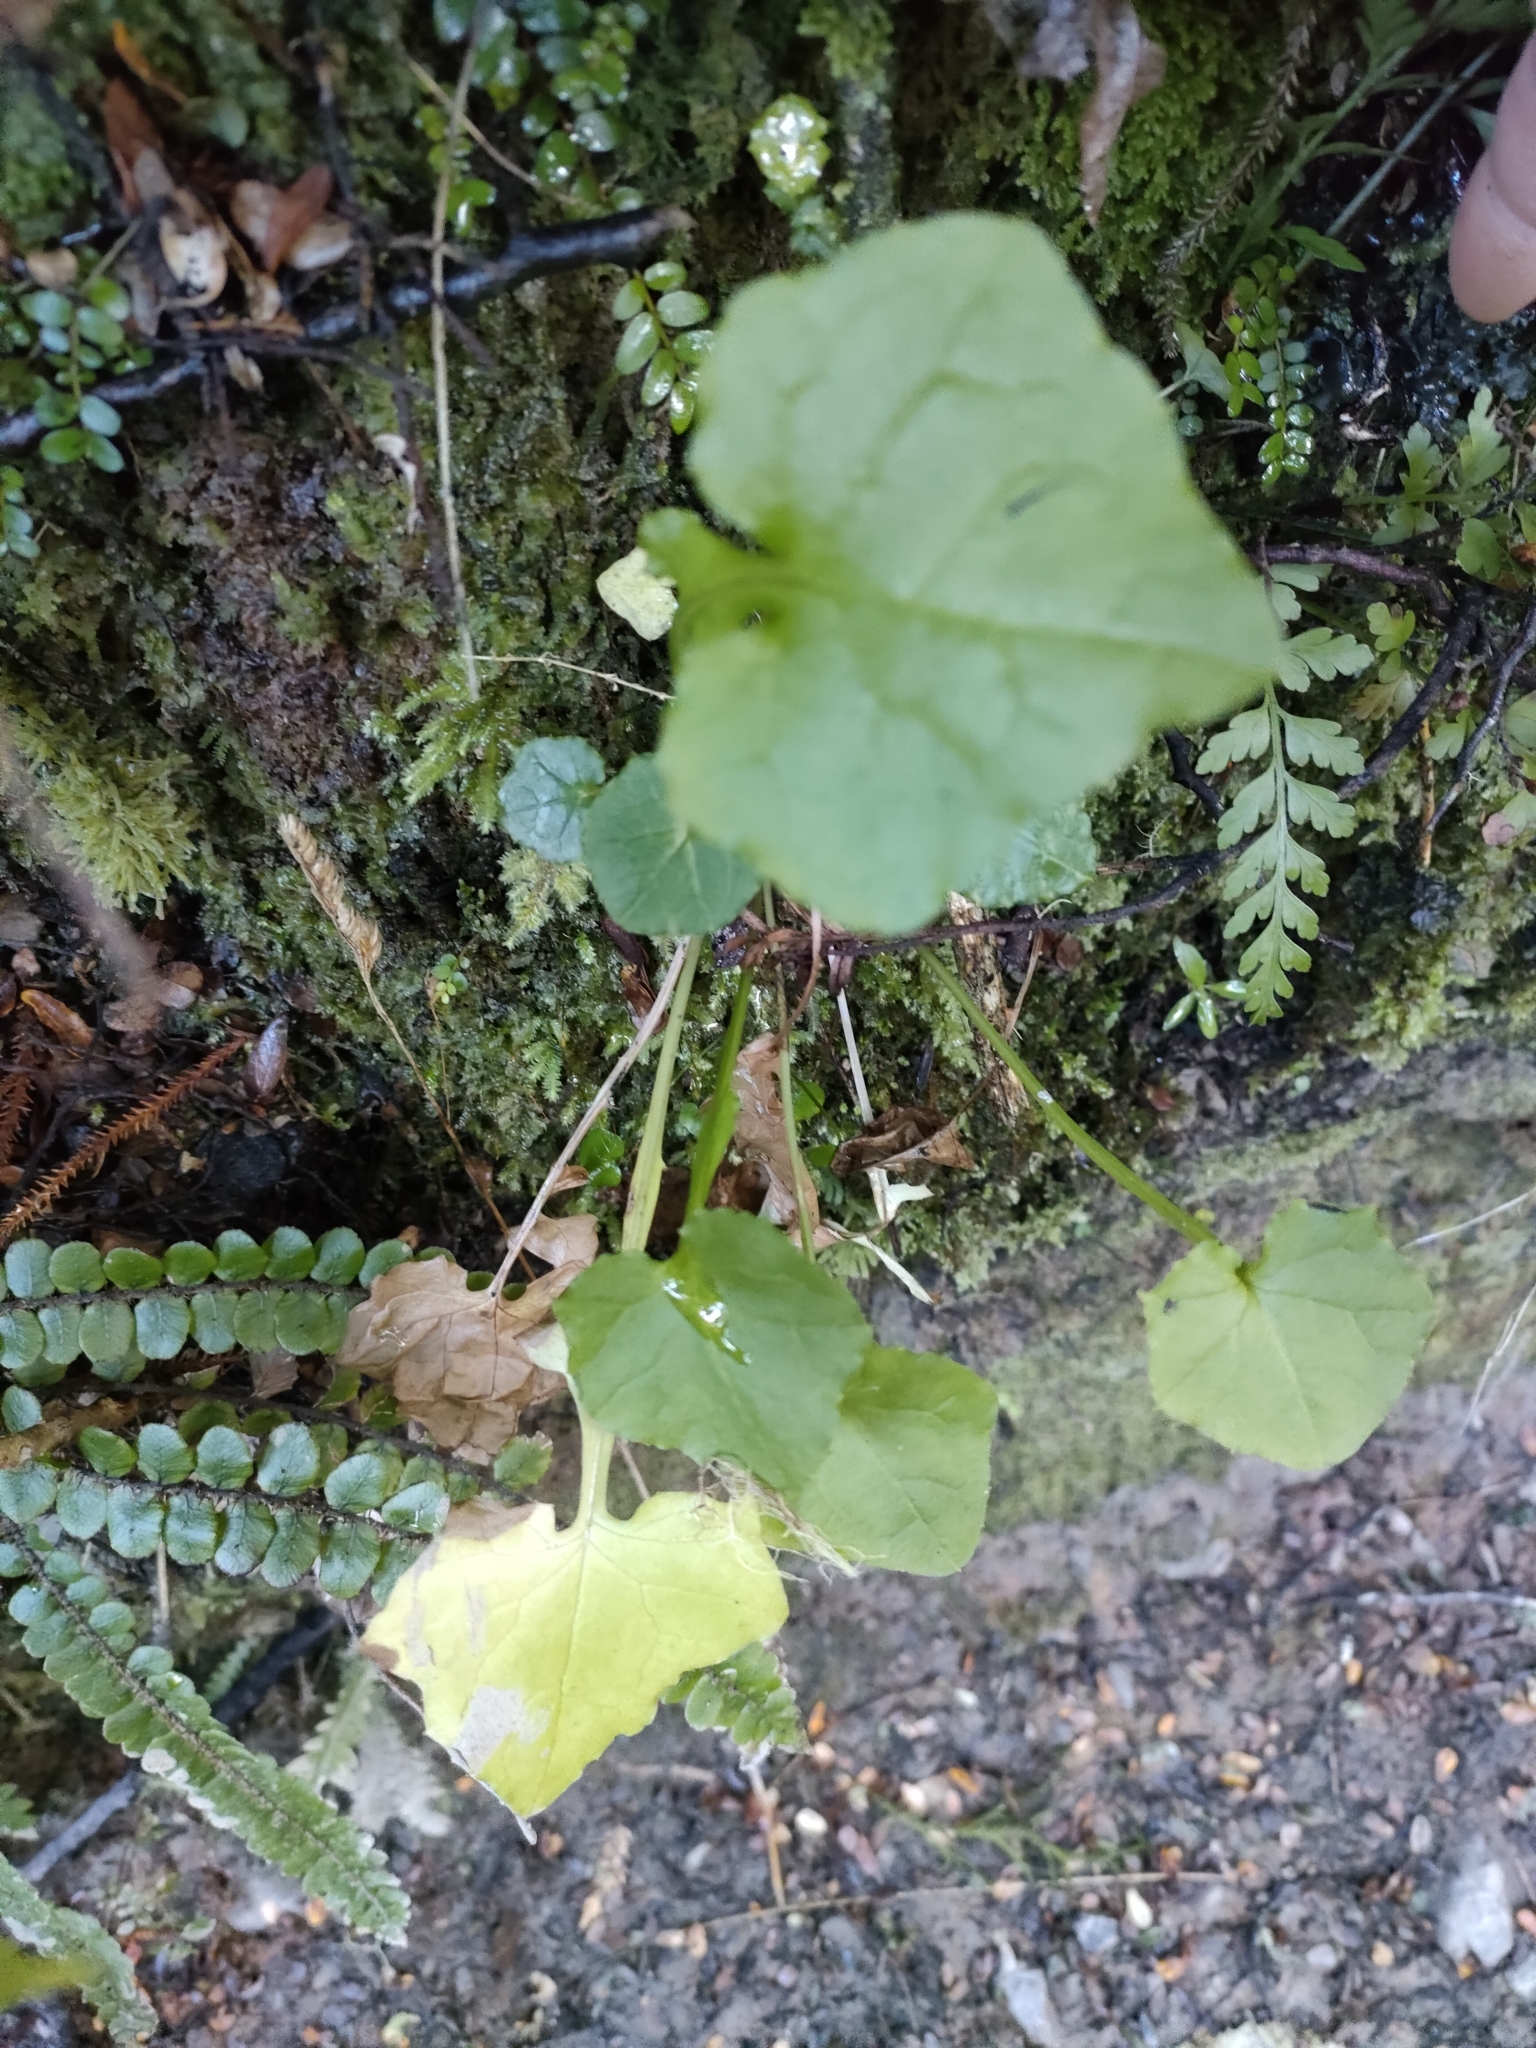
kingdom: Plantae
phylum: Tracheophyta
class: Magnoliopsida
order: Asterales
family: Asteraceae
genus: Mycelis
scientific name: Mycelis muralis
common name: Wall lettuce
